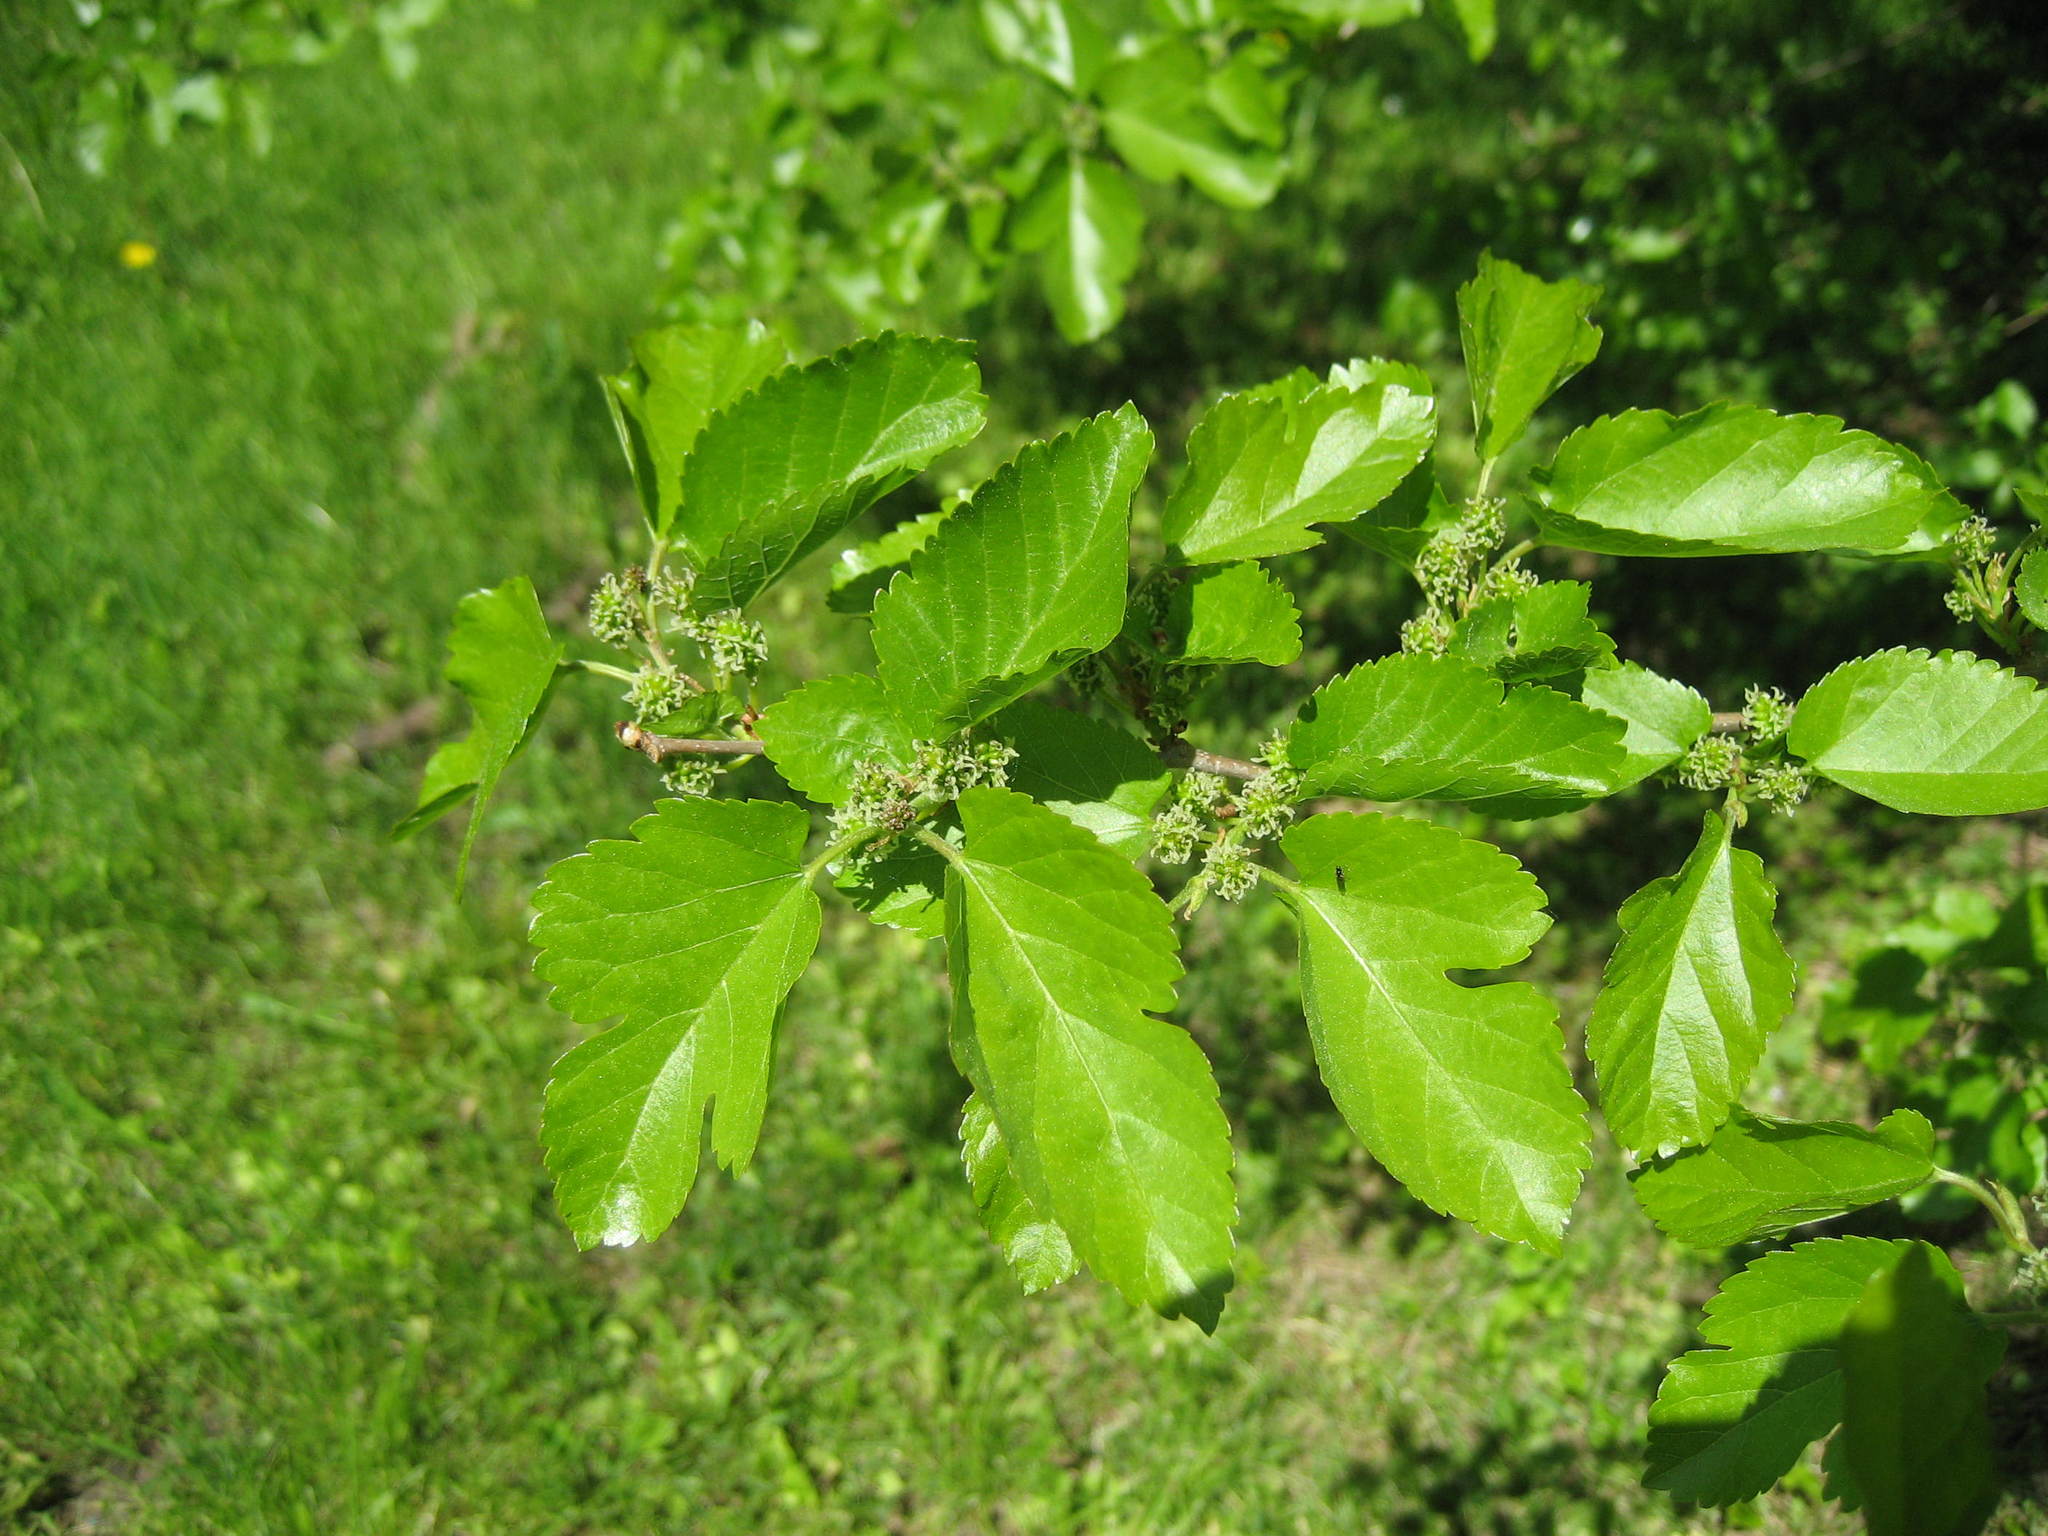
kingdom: Plantae
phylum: Tracheophyta
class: Magnoliopsida
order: Rosales
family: Moraceae
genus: Morus
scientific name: Morus alba
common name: White mulberry
